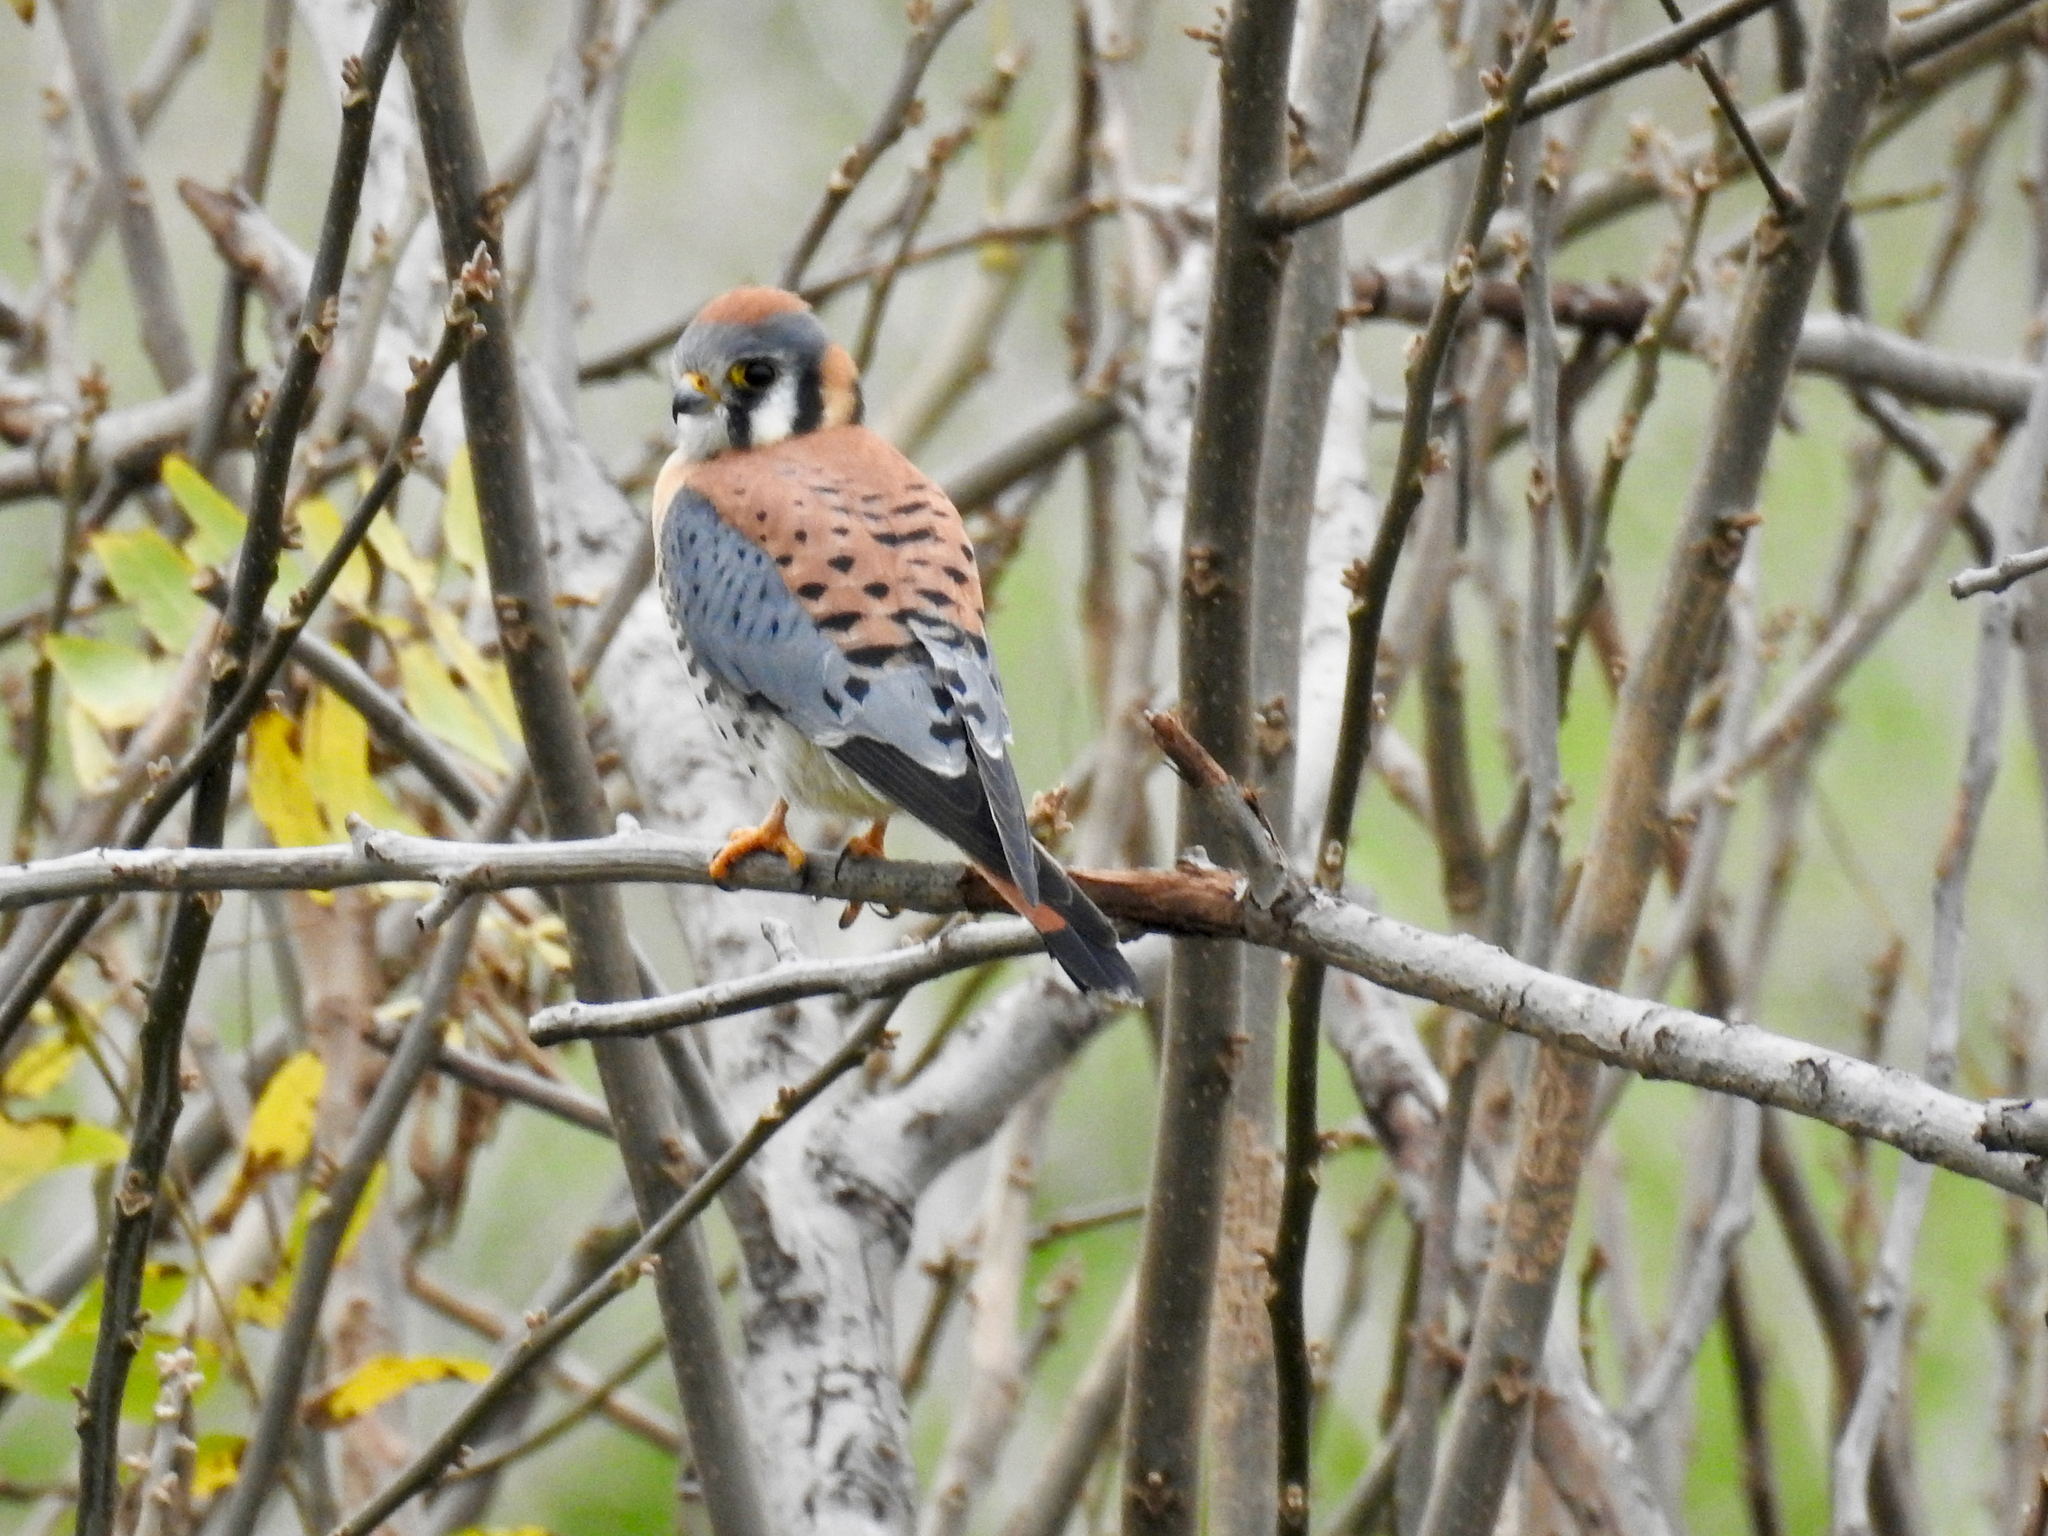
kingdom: Animalia
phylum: Chordata
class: Aves
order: Falconiformes
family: Falconidae
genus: Falco
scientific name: Falco sparverius
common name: American kestrel
